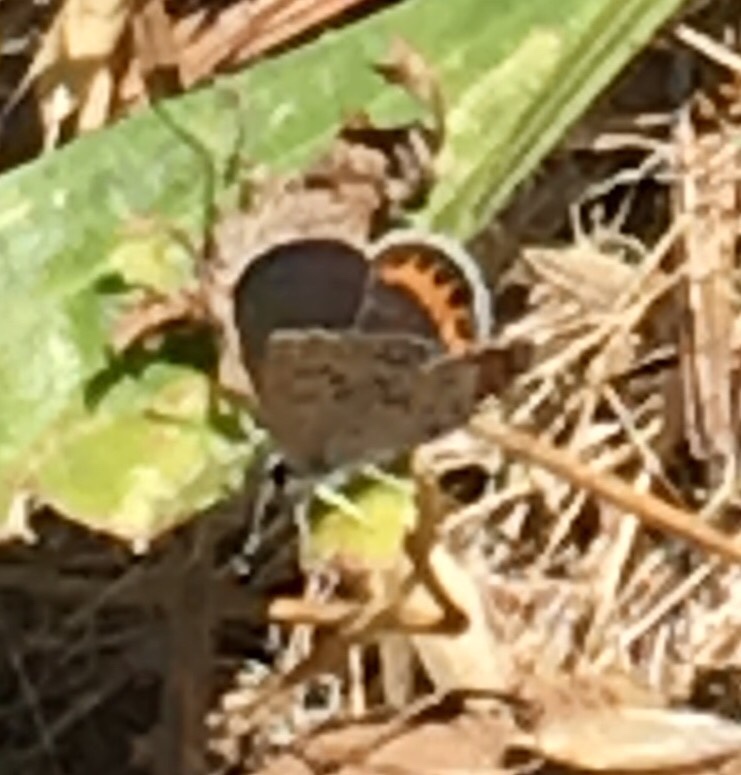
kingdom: Animalia
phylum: Arthropoda
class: Insecta
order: Lepidoptera
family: Lycaenidae
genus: Icaricia
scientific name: Icaricia acmon
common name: Acmon blue
